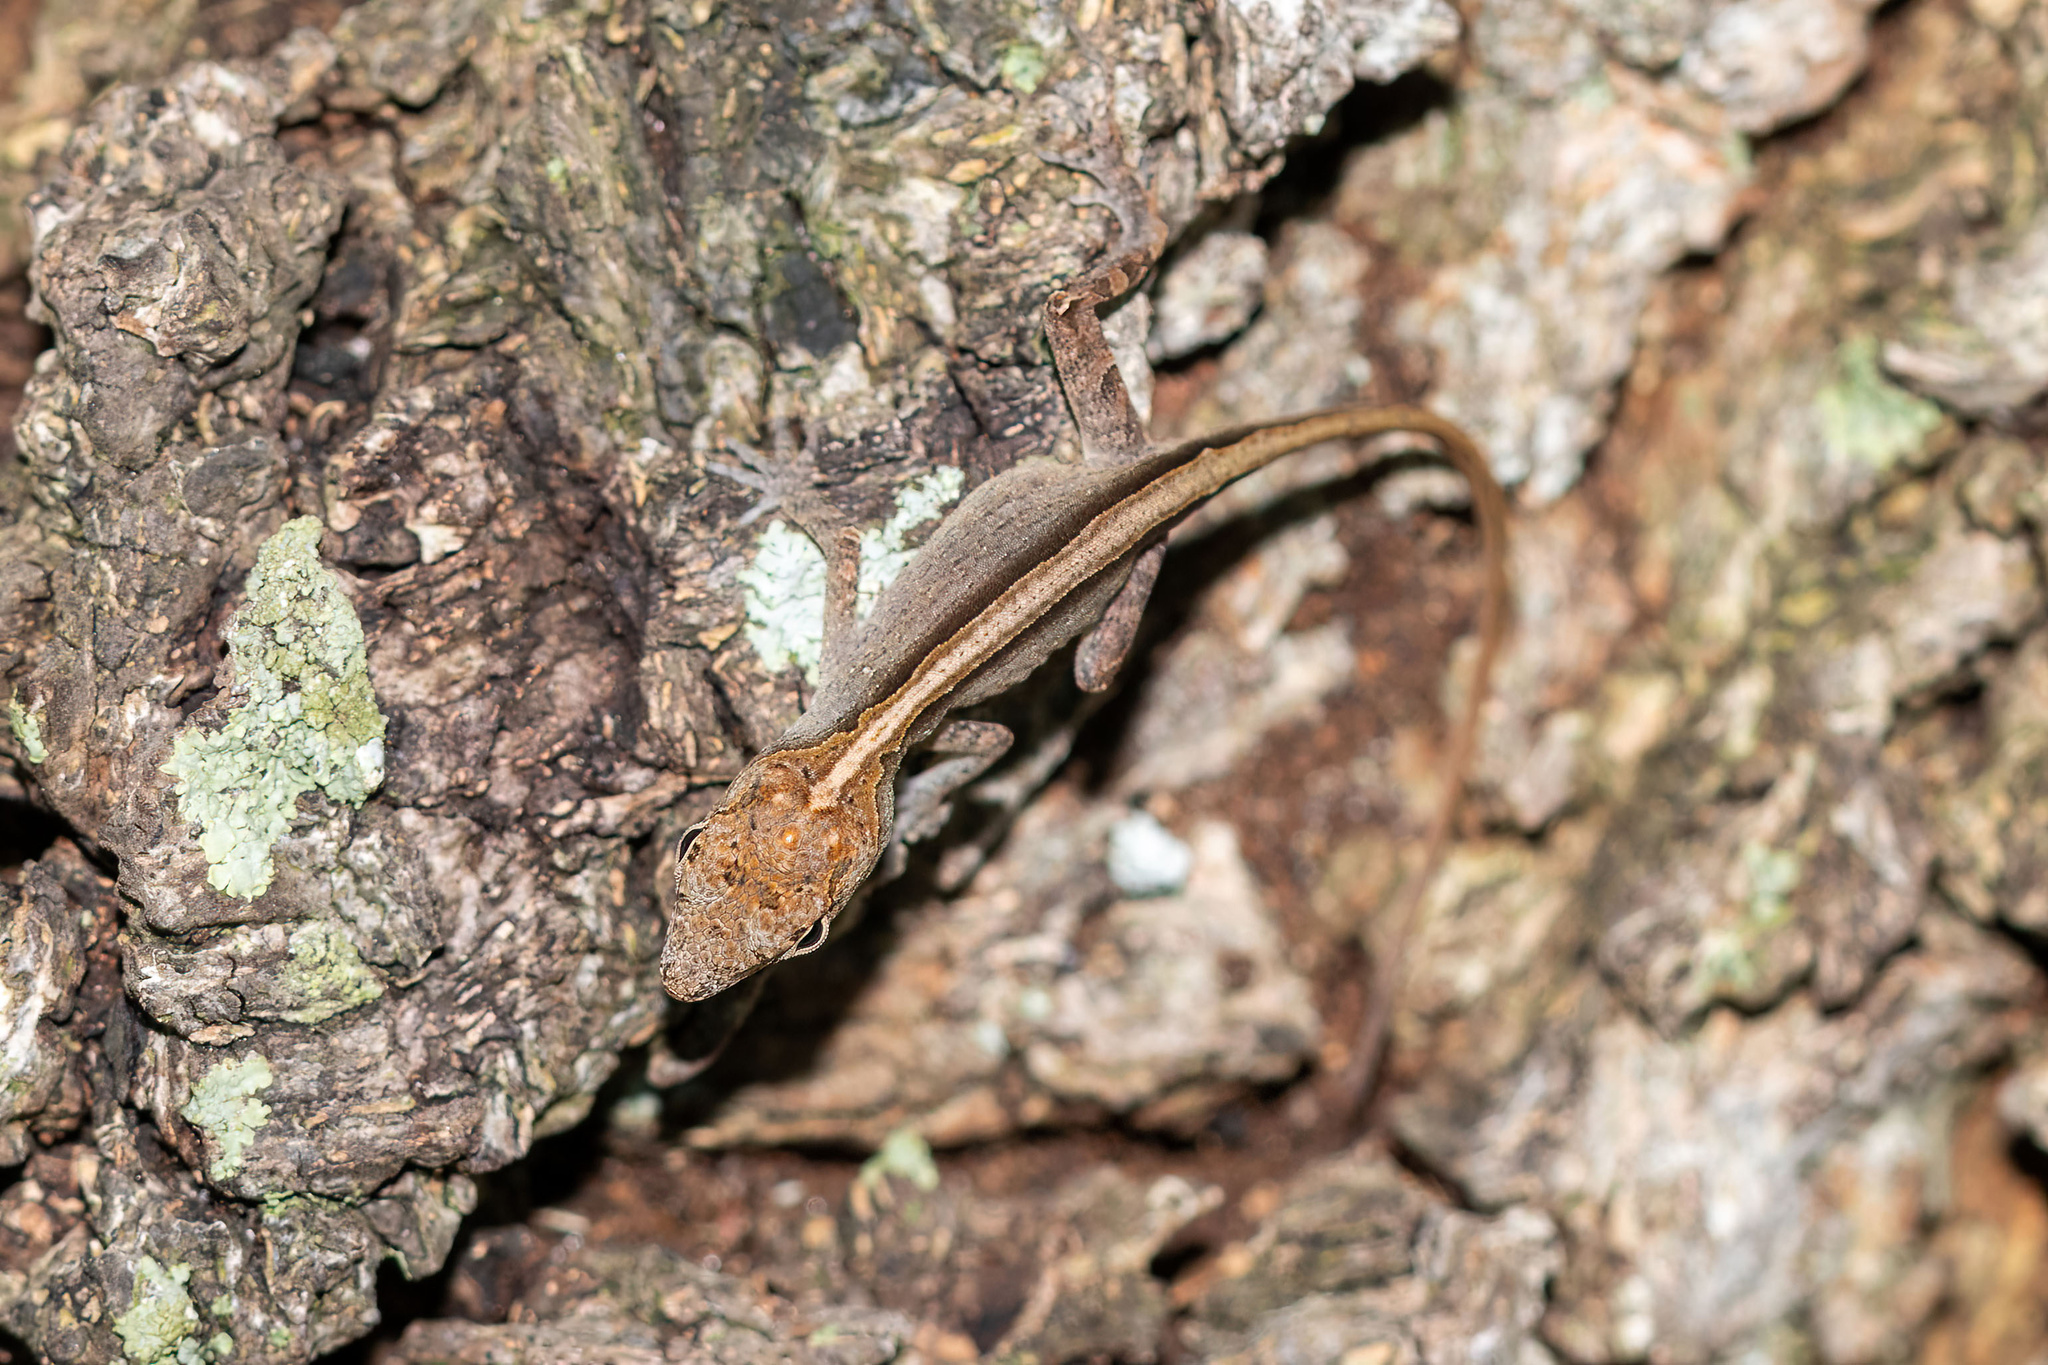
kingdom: Animalia
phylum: Chordata
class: Squamata
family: Dactyloidae
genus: Anolis
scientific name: Anolis sagrei
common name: Brown anole
